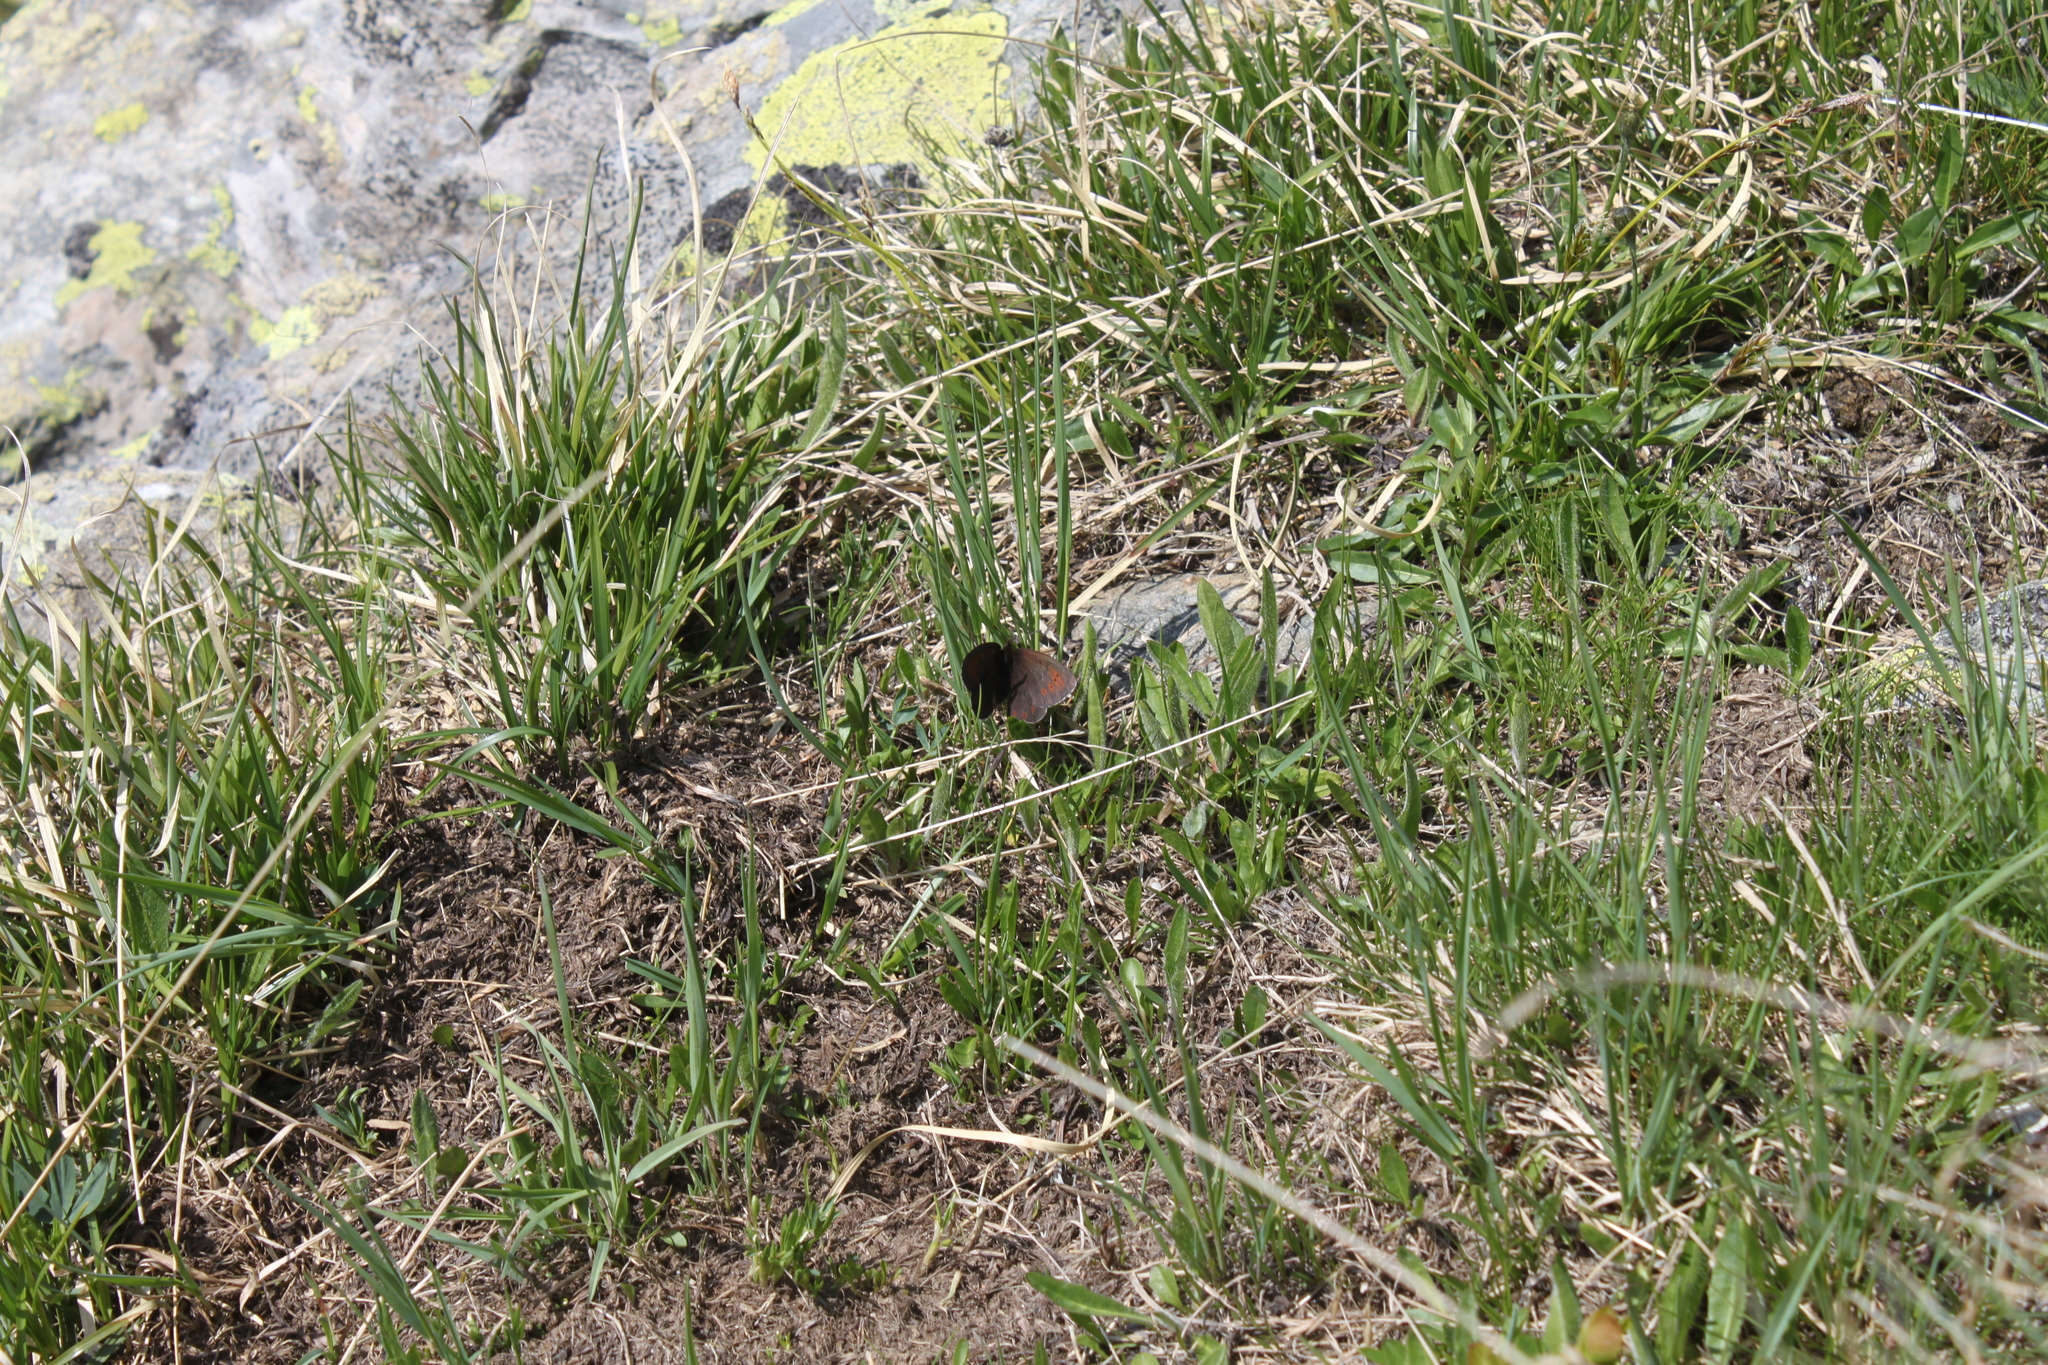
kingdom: Animalia
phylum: Arthropoda
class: Insecta
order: Lepidoptera
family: Nymphalidae
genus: Erebia
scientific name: Erebia pandrose
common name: Dewy ringlet
